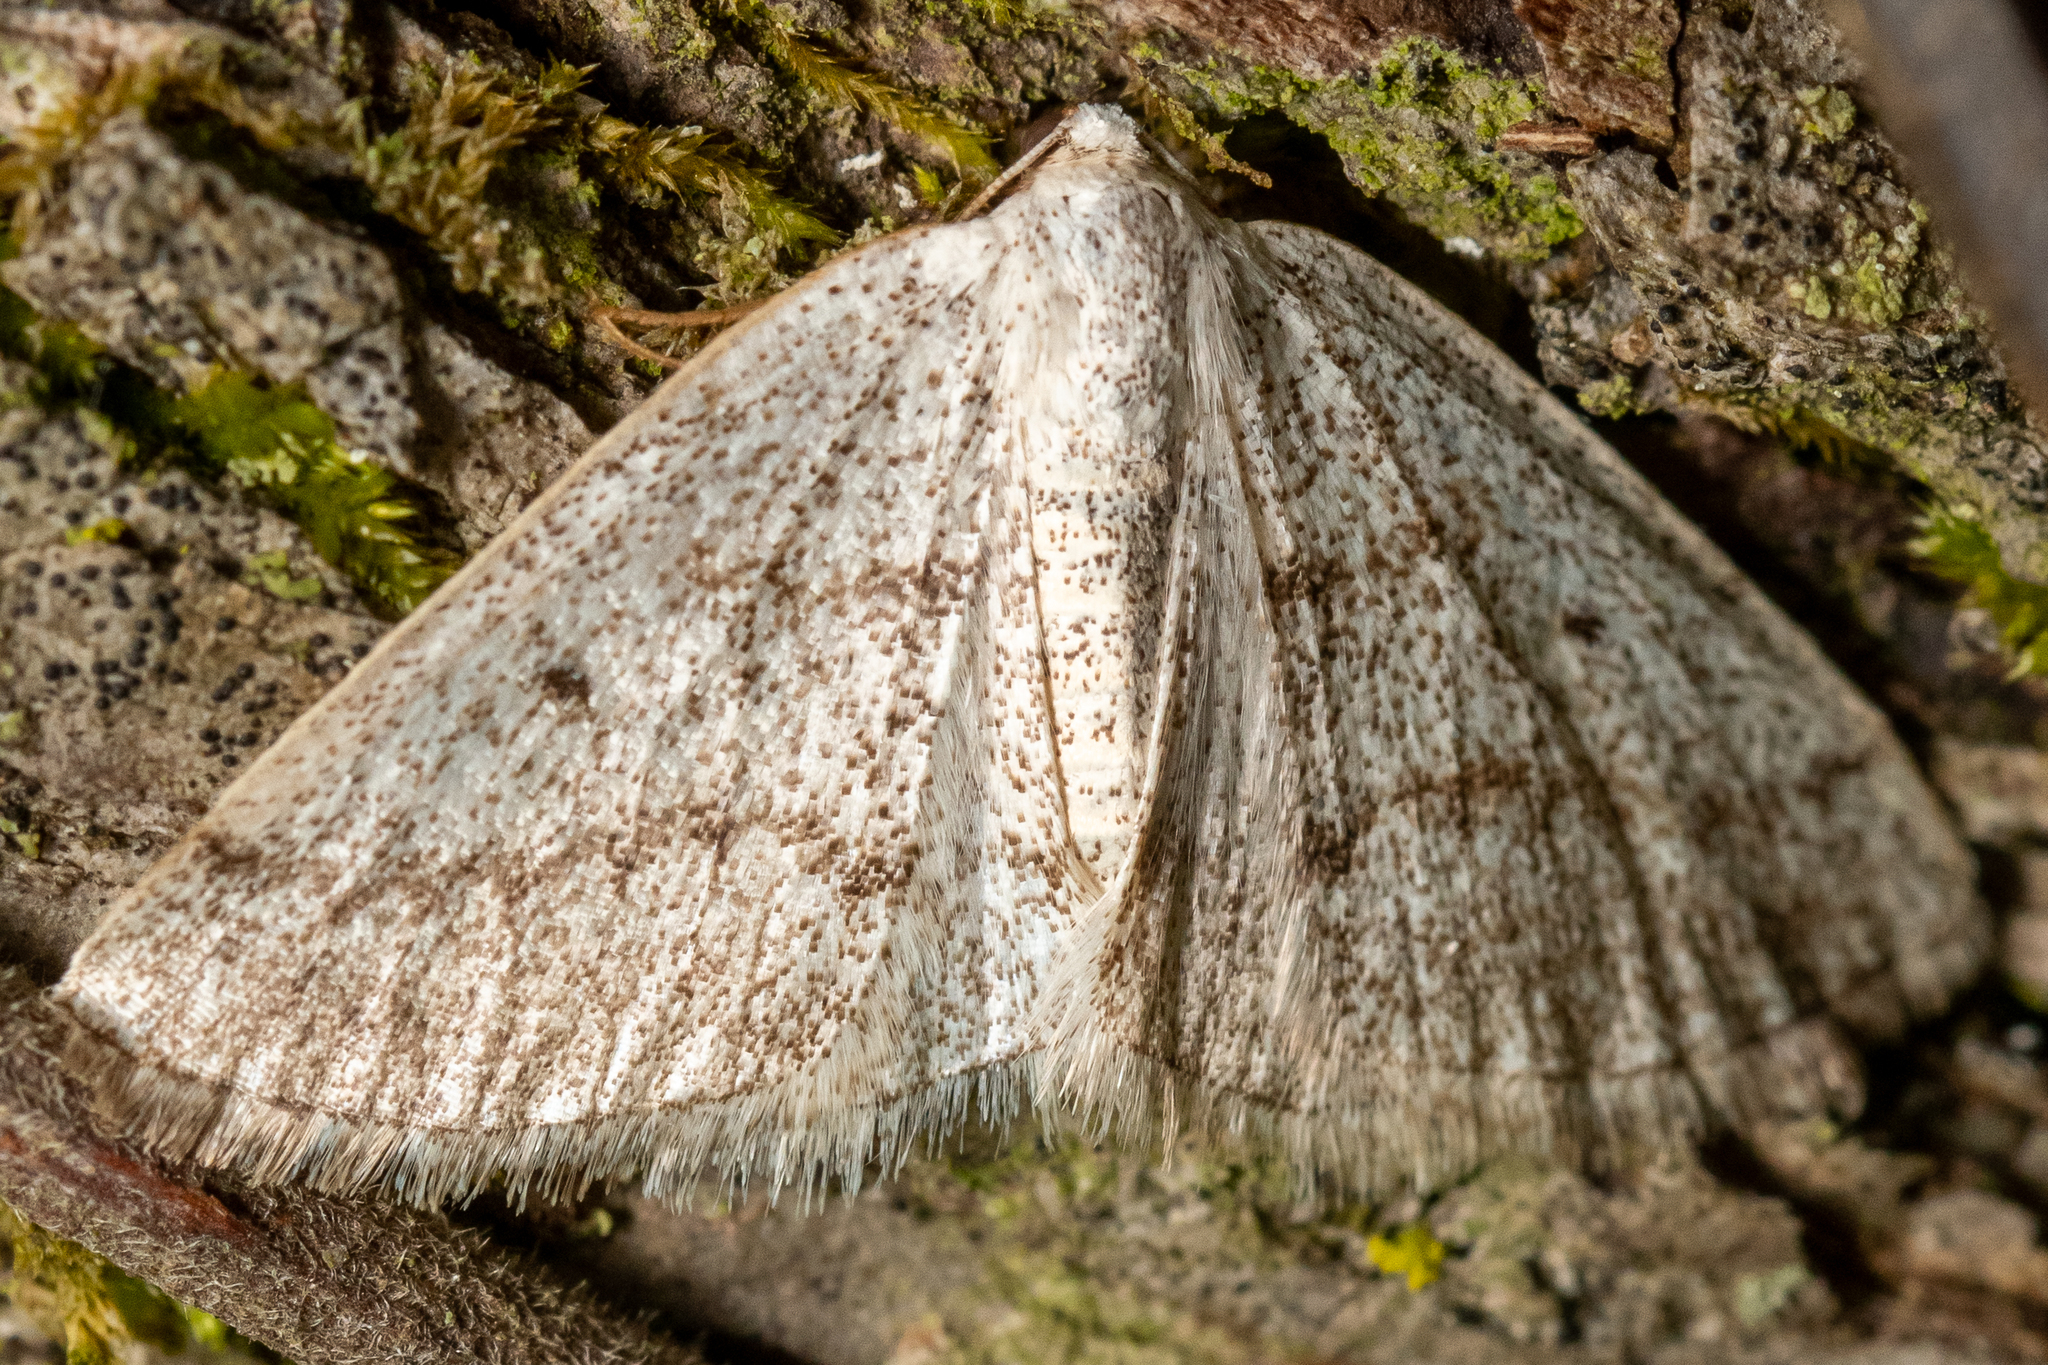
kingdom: Animalia
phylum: Arthropoda
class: Insecta
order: Lepidoptera
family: Geometridae
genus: Lomographa
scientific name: Lomographa glomeraria
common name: Gray spring moth
